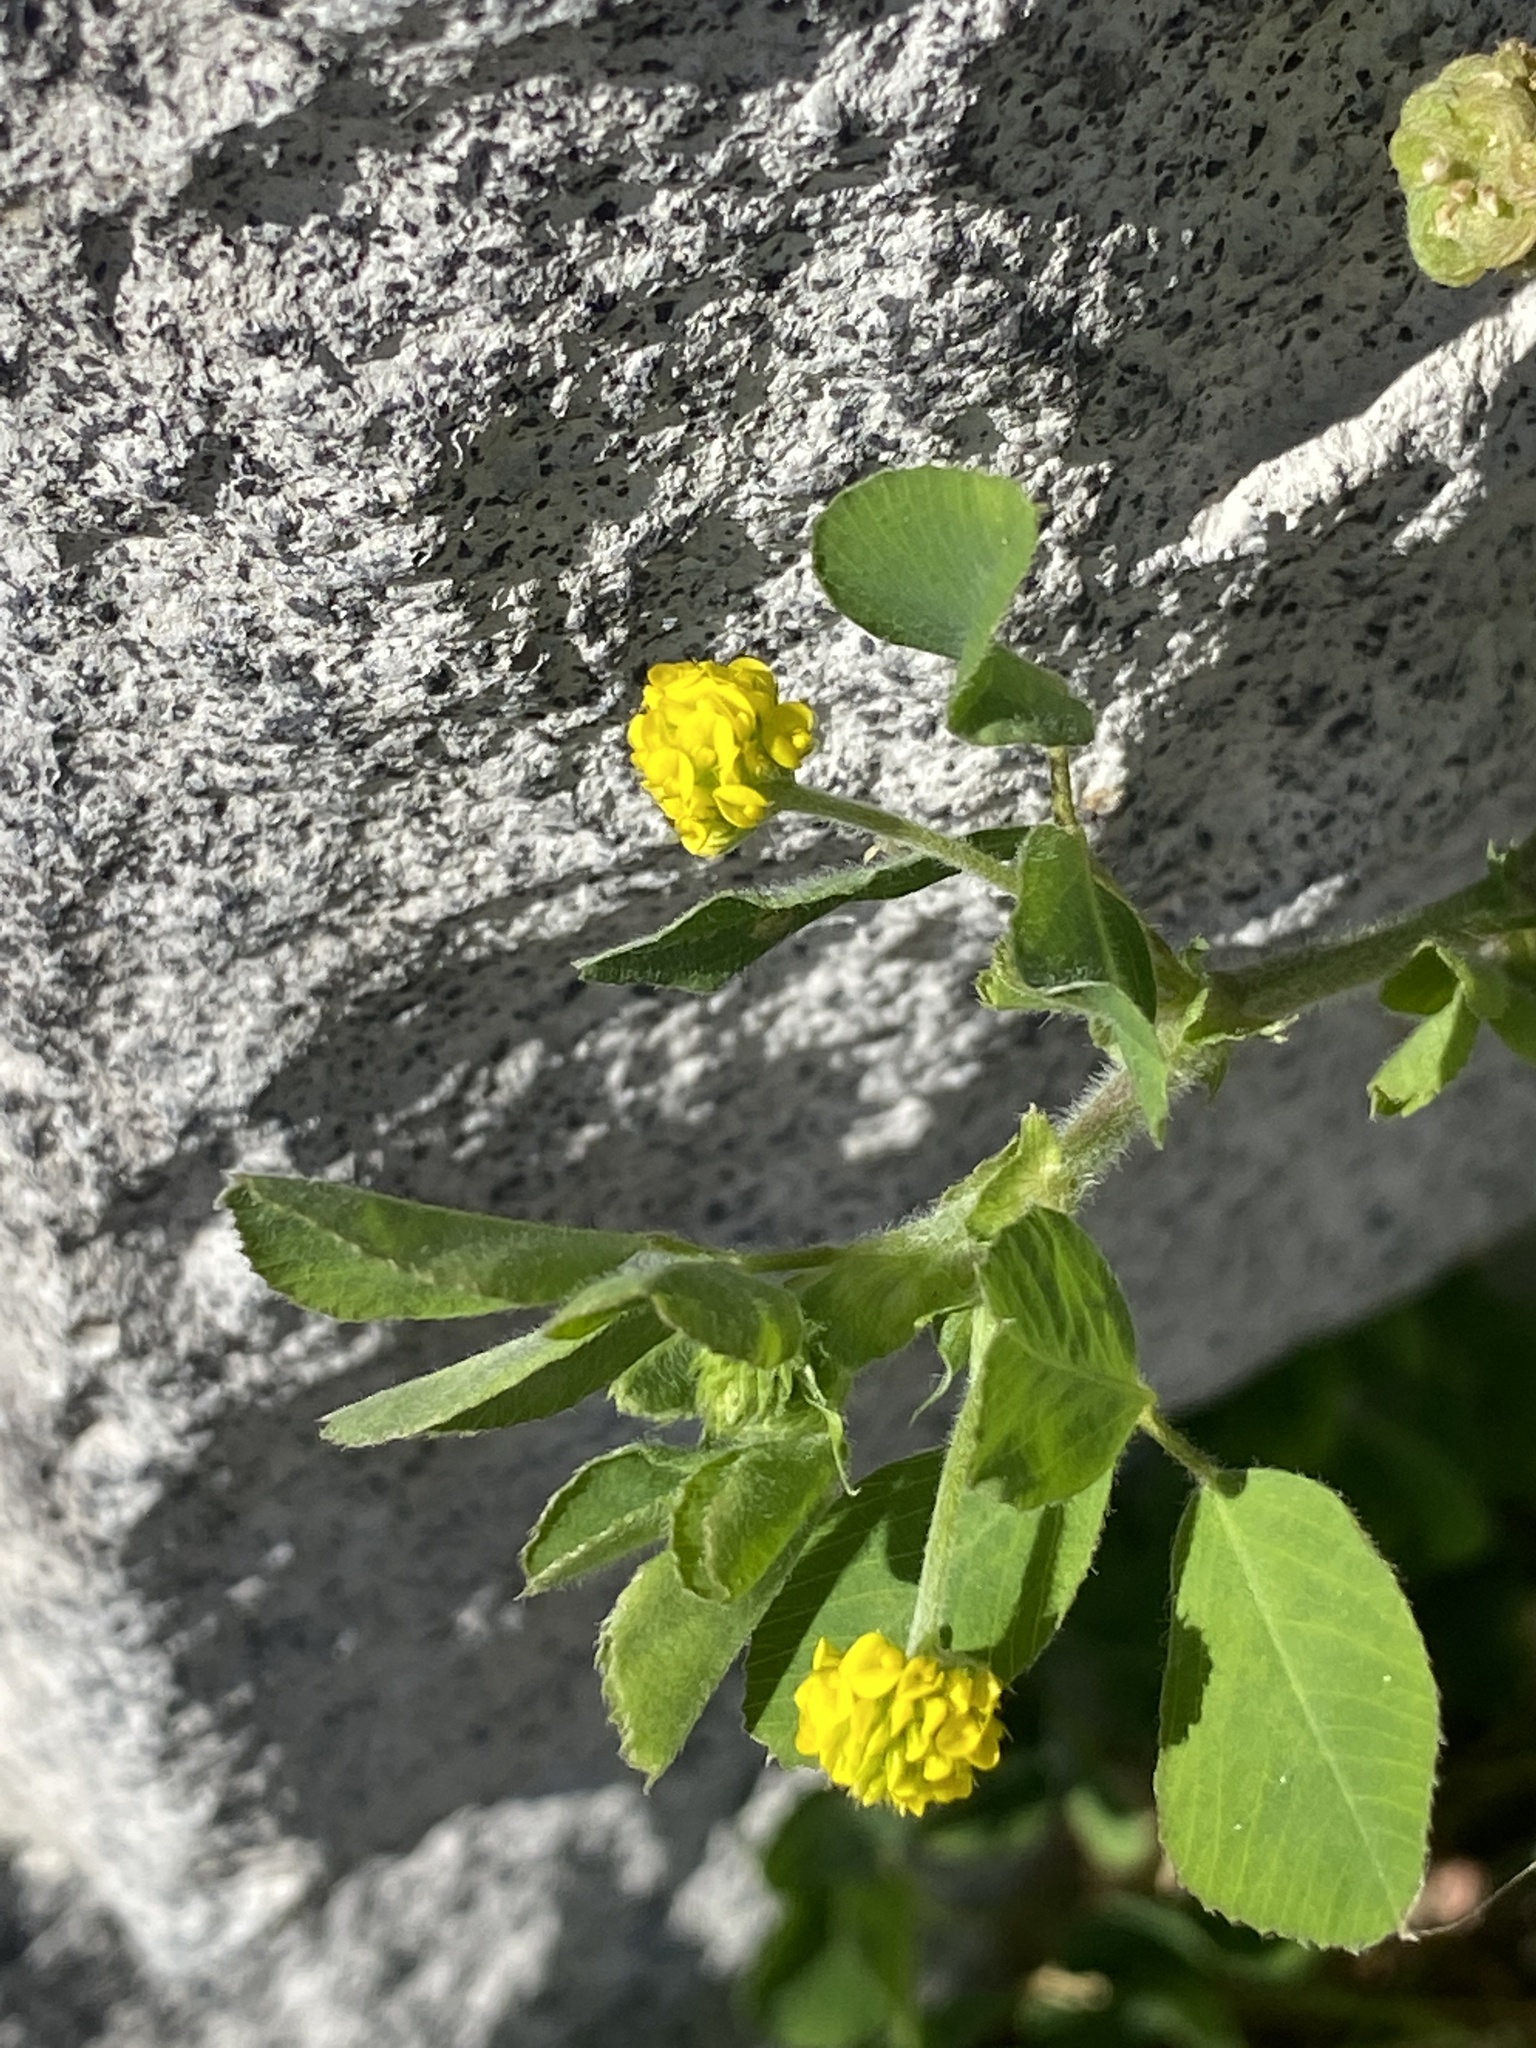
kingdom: Plantae
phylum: Tracheophyta
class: Magnoliopsida
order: Fabales
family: Fabaceae
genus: Medicago
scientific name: Medicago lupulina
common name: Black medick
